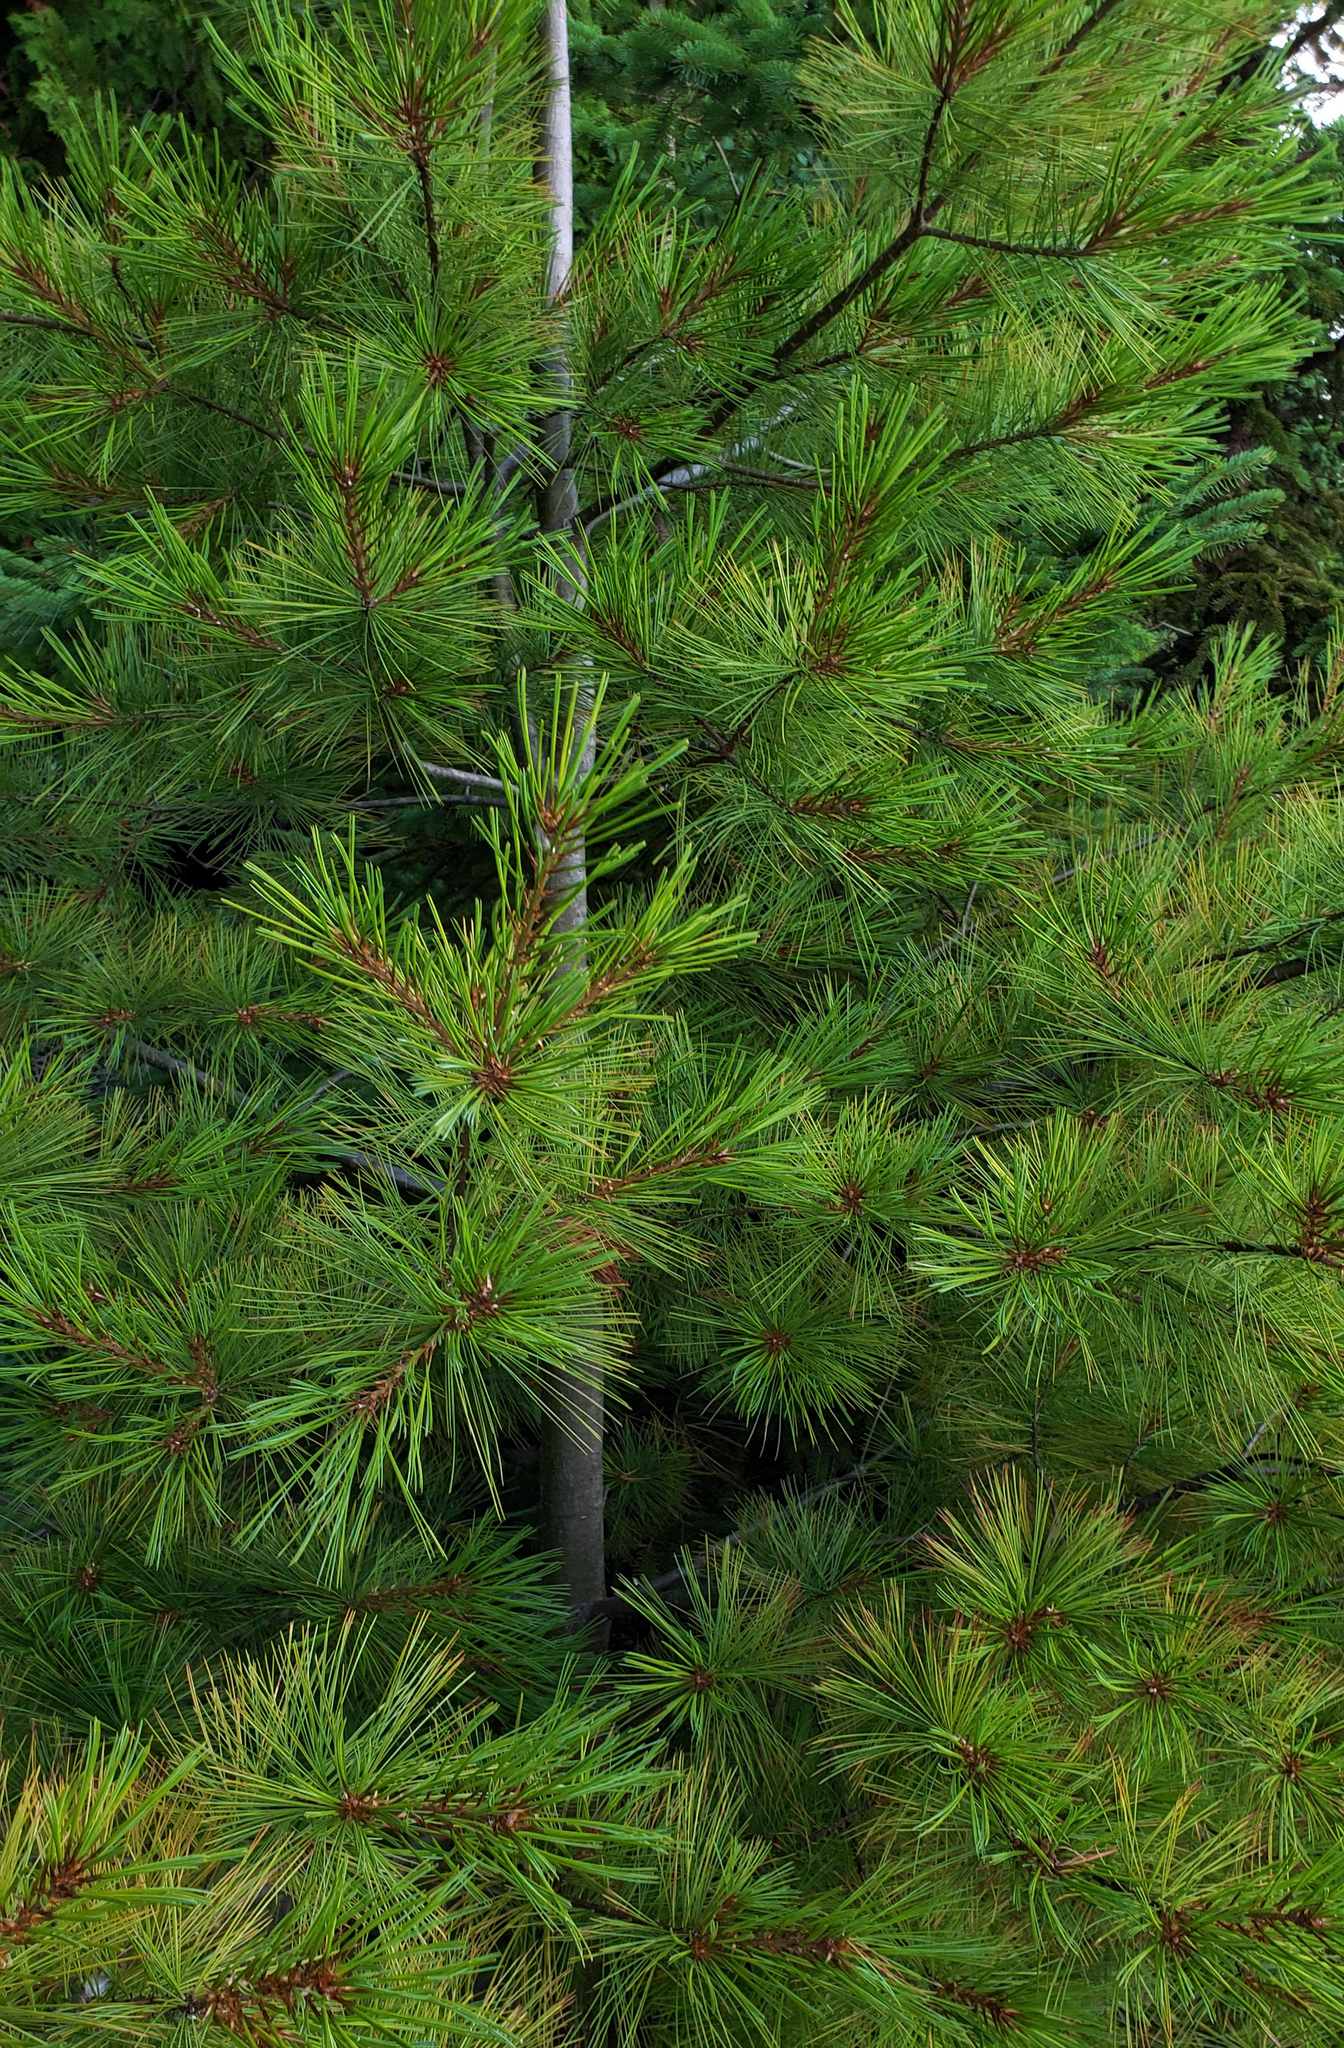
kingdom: Plantae
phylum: Tracheophyta
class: Pinopsida
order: Pinales
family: Pinaceae
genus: Pinus
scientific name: Pinus strobus
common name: Weymouth pine
